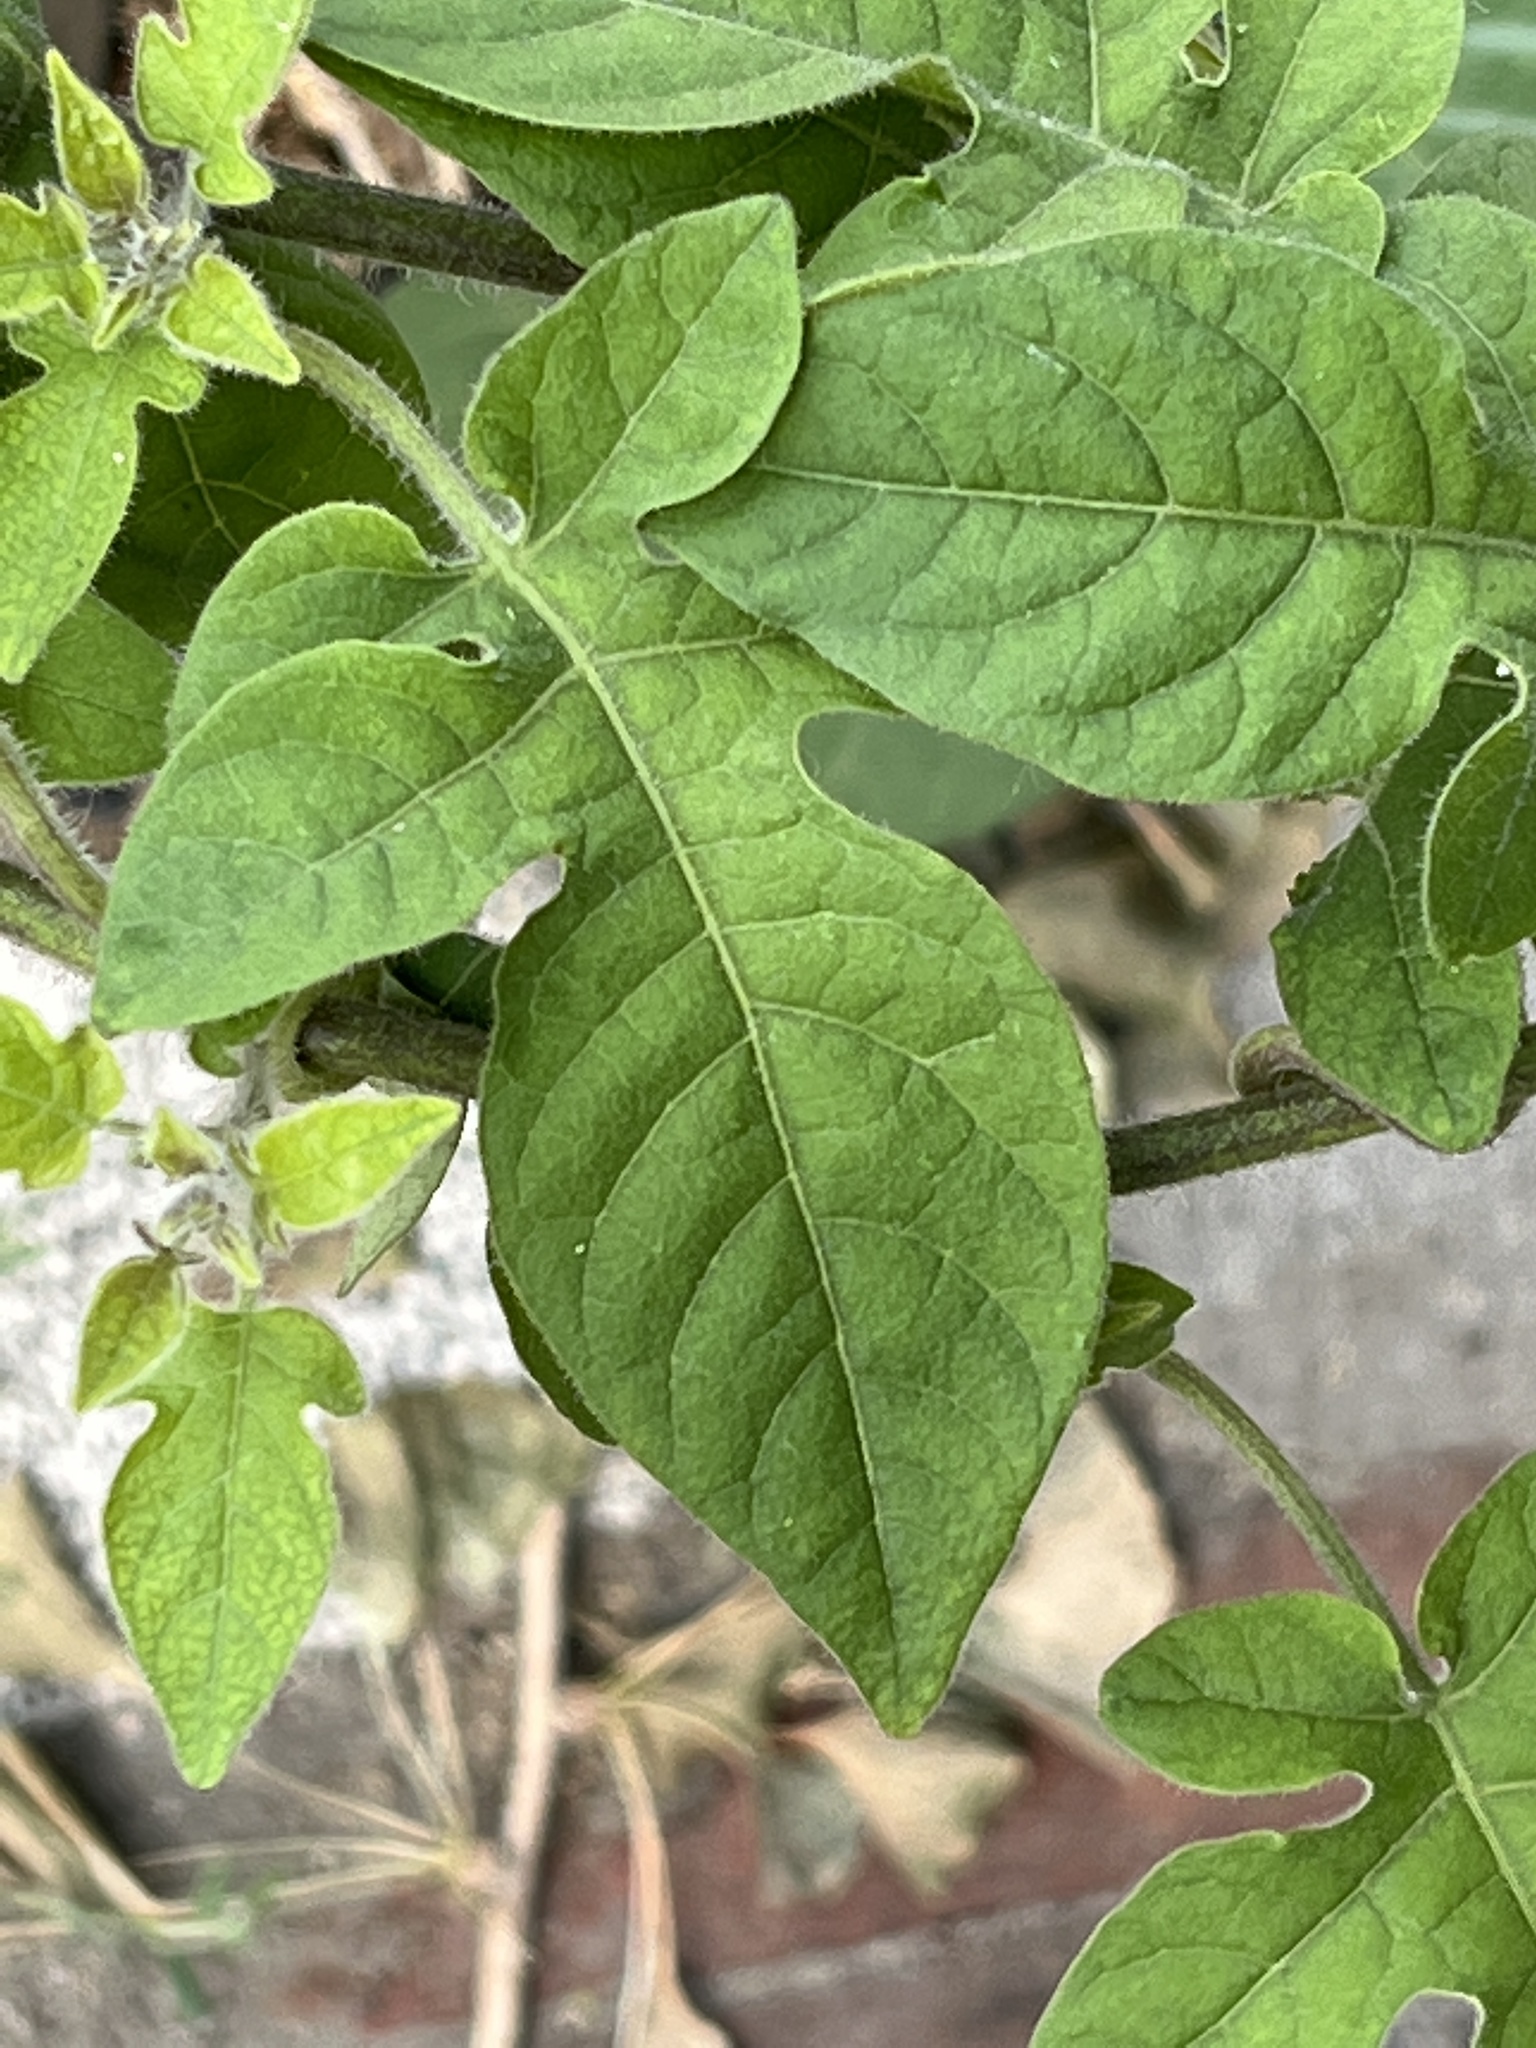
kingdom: Plantae
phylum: Tracheophyta
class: Magnoliopsida
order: Solanales
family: Solanaceae
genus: Solanum
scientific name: Solanum lyratum
